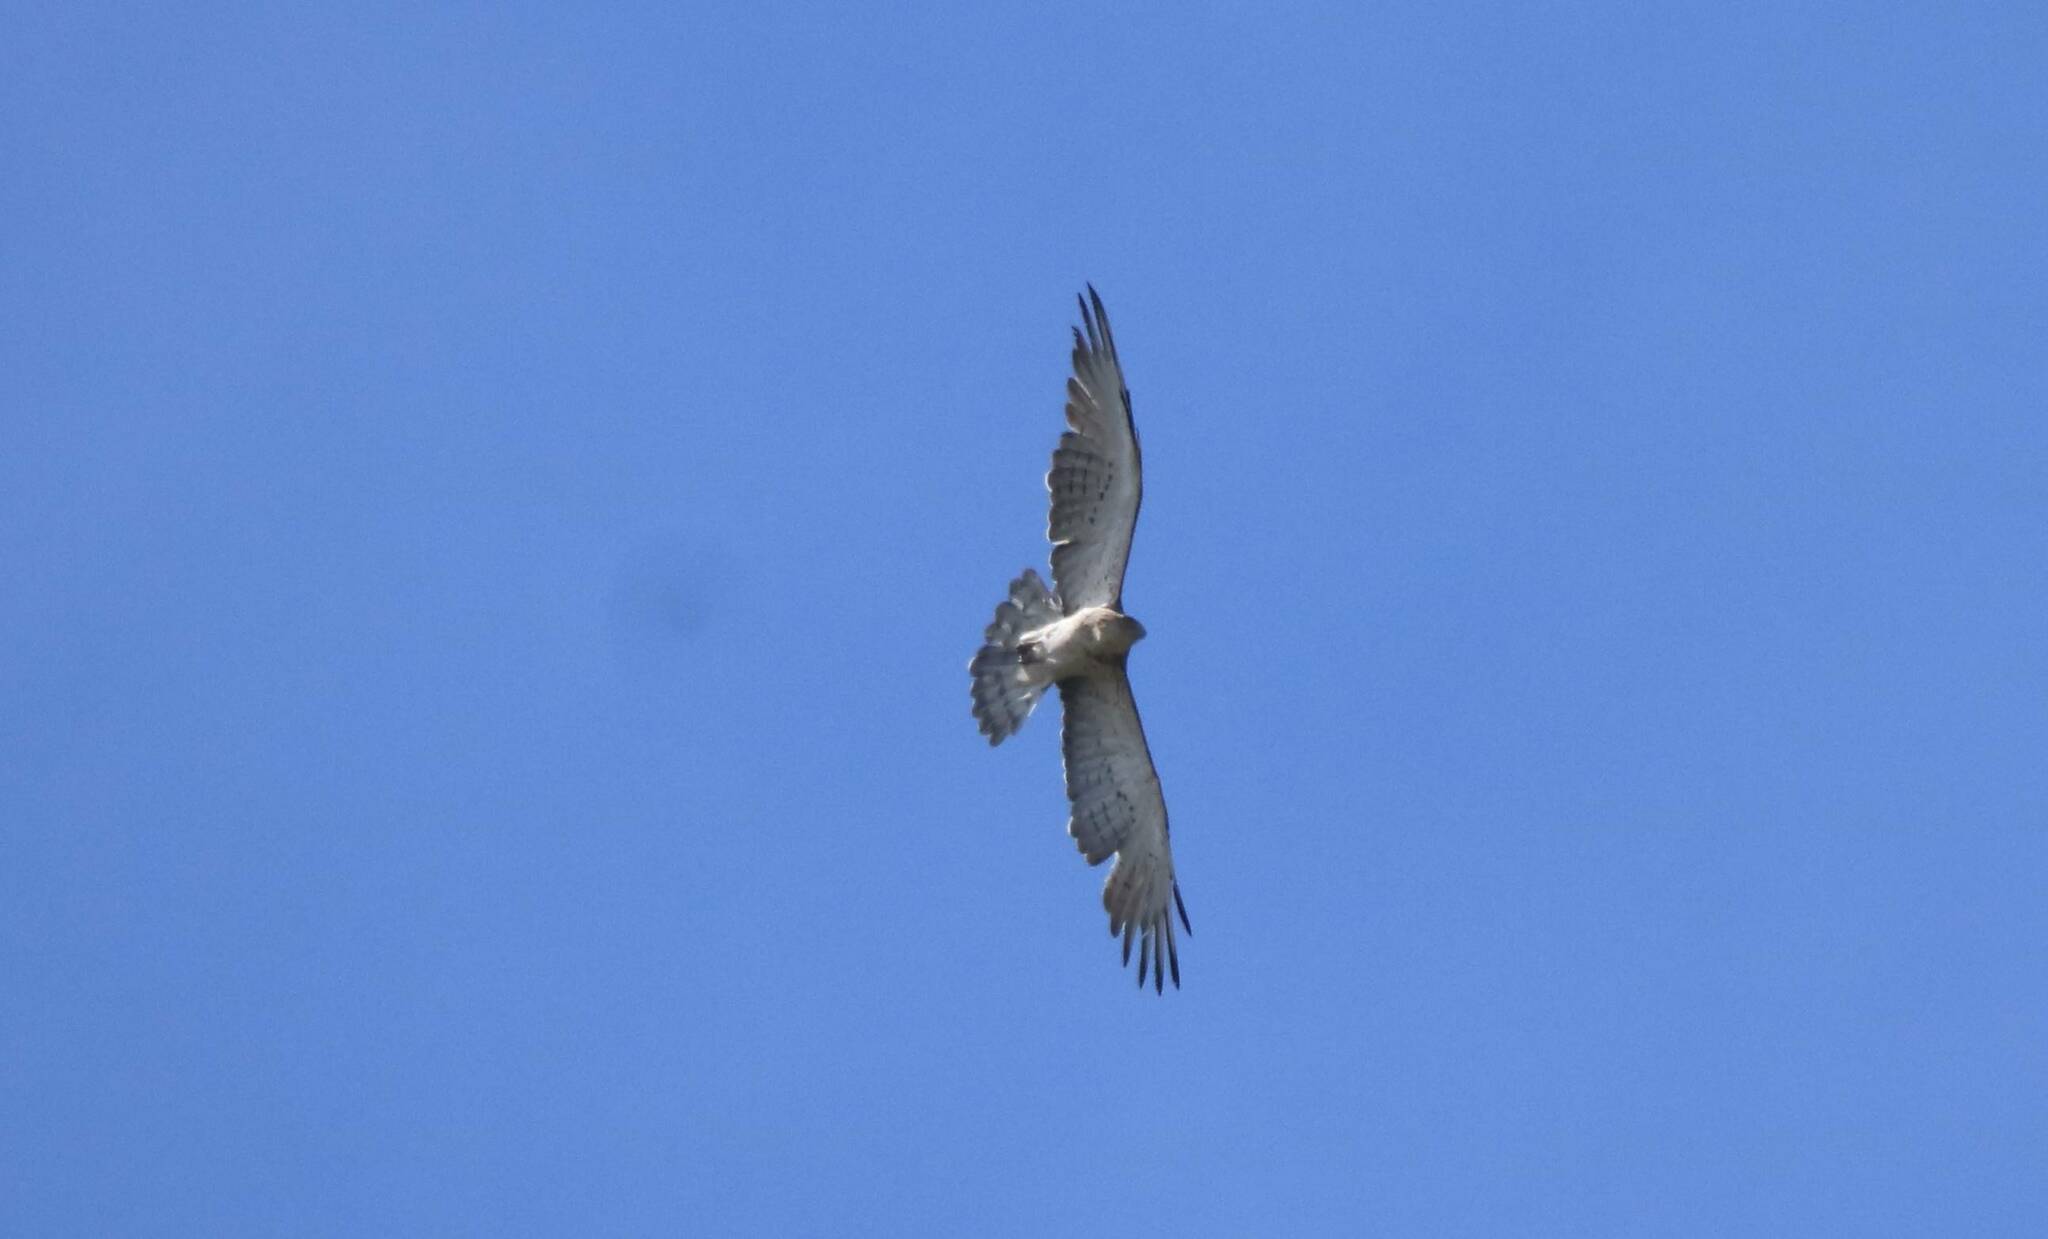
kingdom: Animalia
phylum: Chordata
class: Aves
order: Accipitriformes
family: Accipitridae
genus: Circaetus
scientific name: Circaetus gallicus
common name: Short-toed snake eagle
